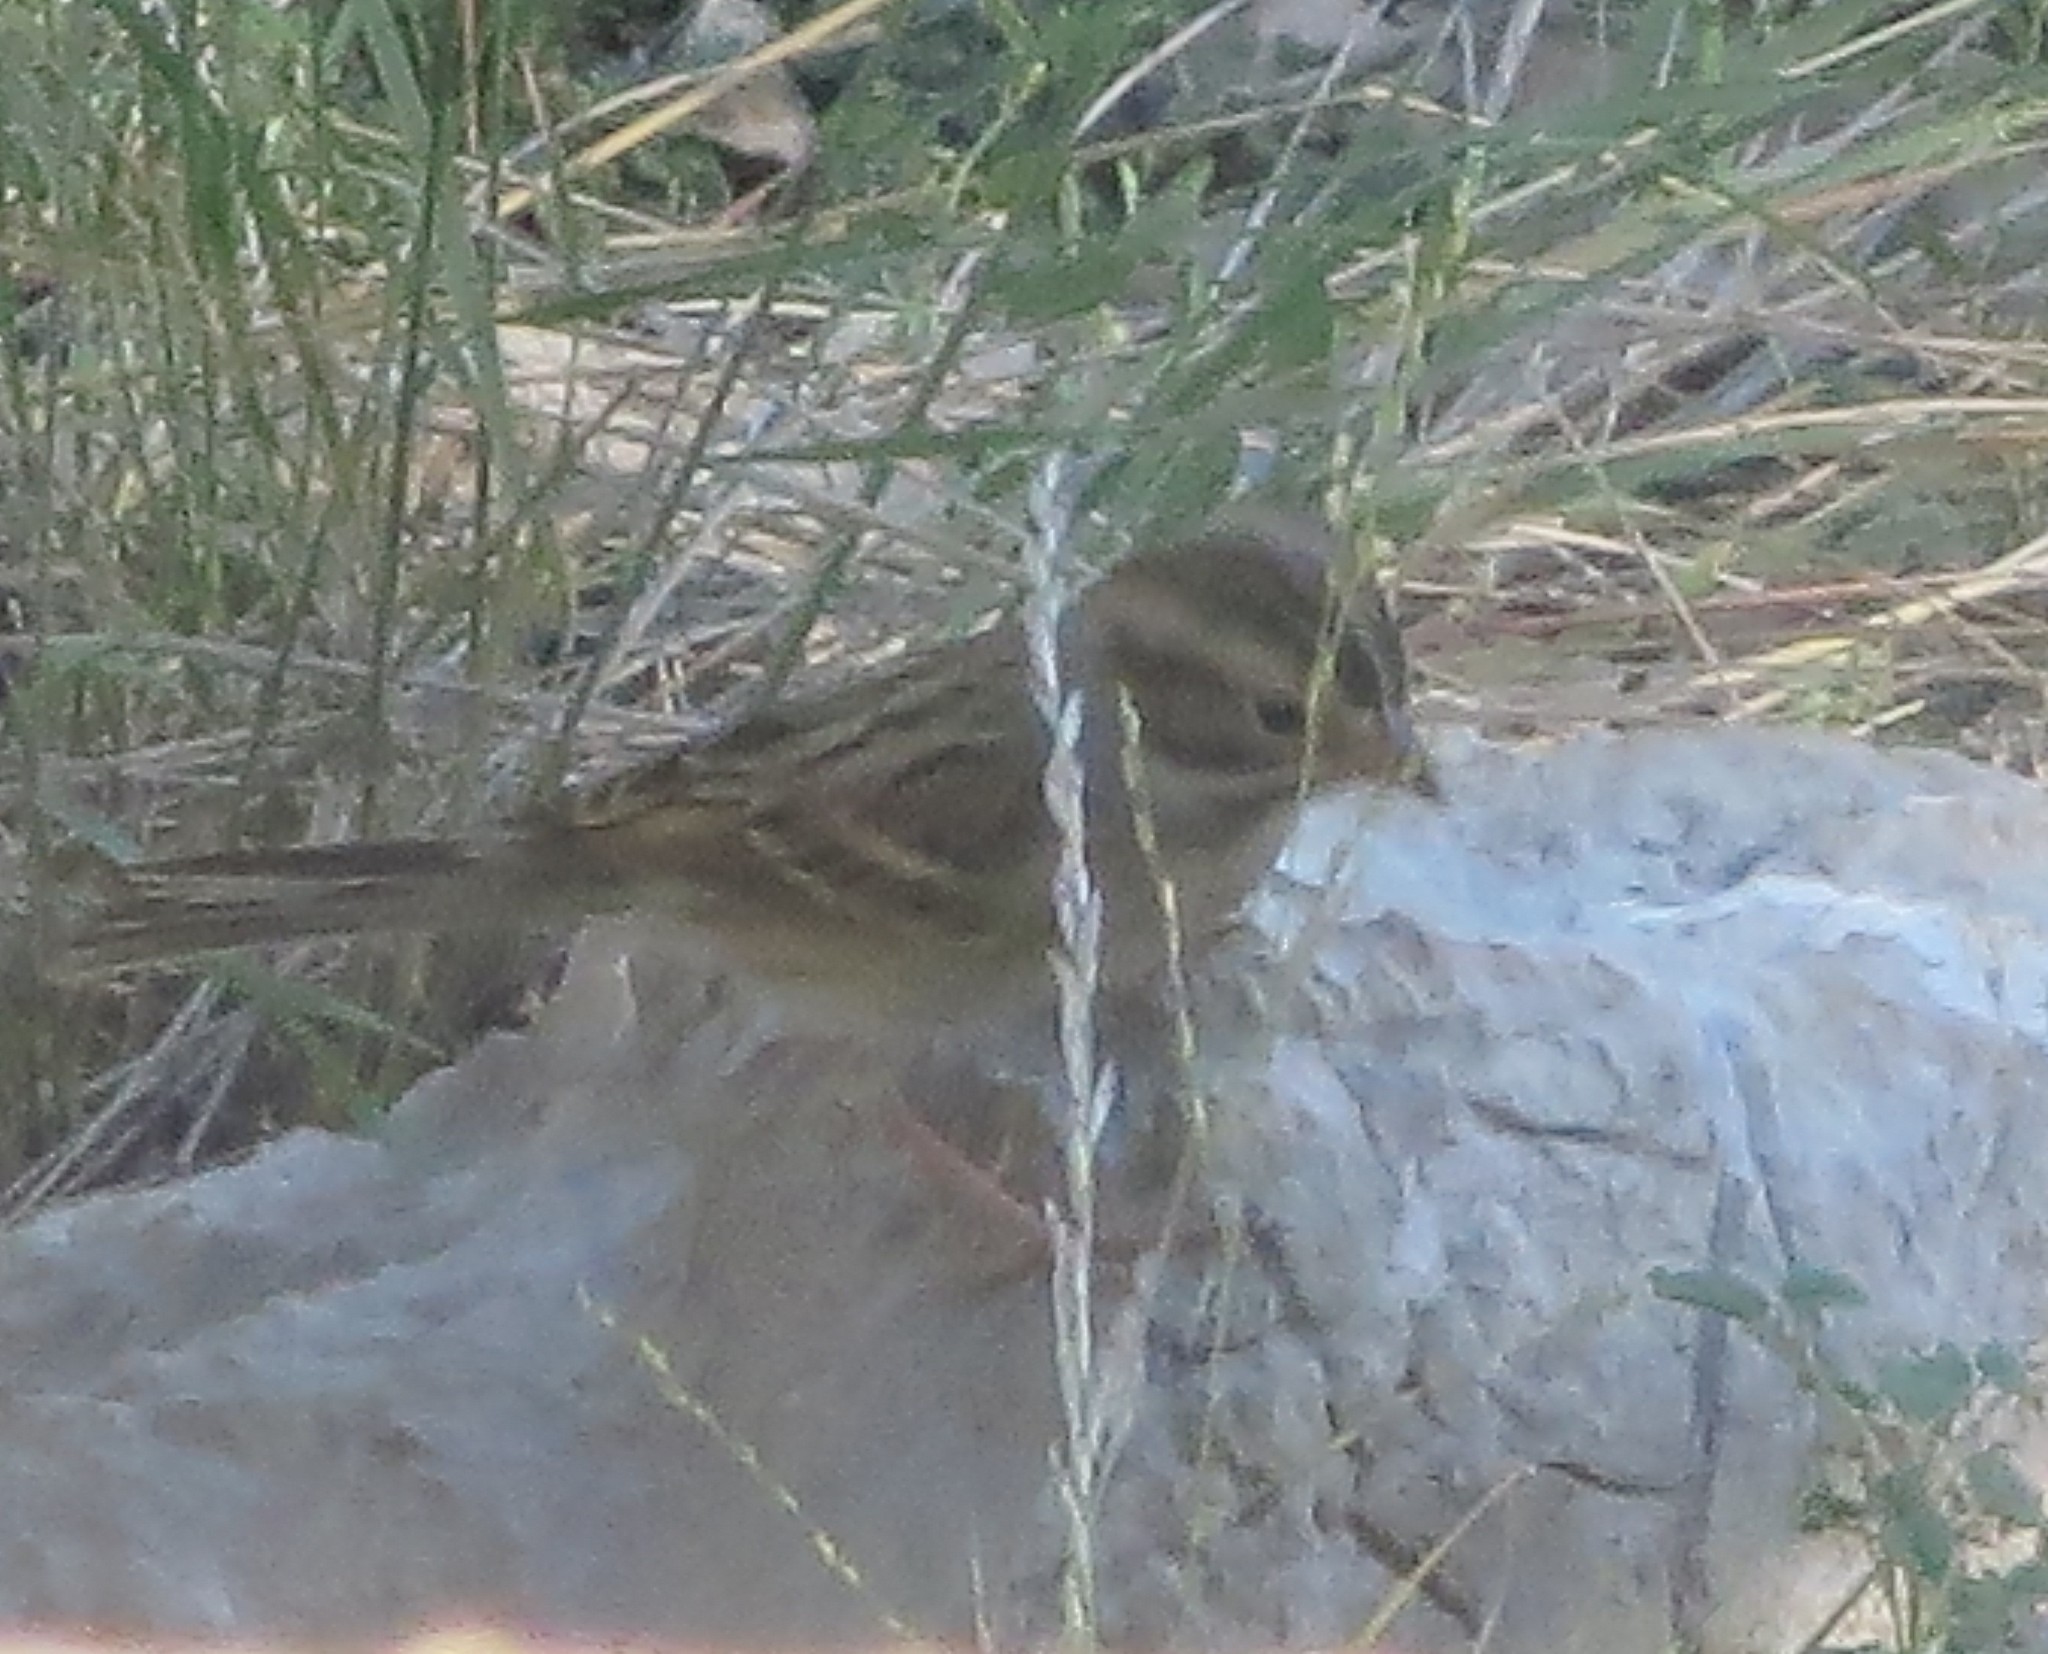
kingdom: Animalia
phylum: Chordata
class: Aves
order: Passeriformes
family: Passerellidae
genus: Spizella
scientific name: Spizella pallida
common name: Clay-colored sparrow
